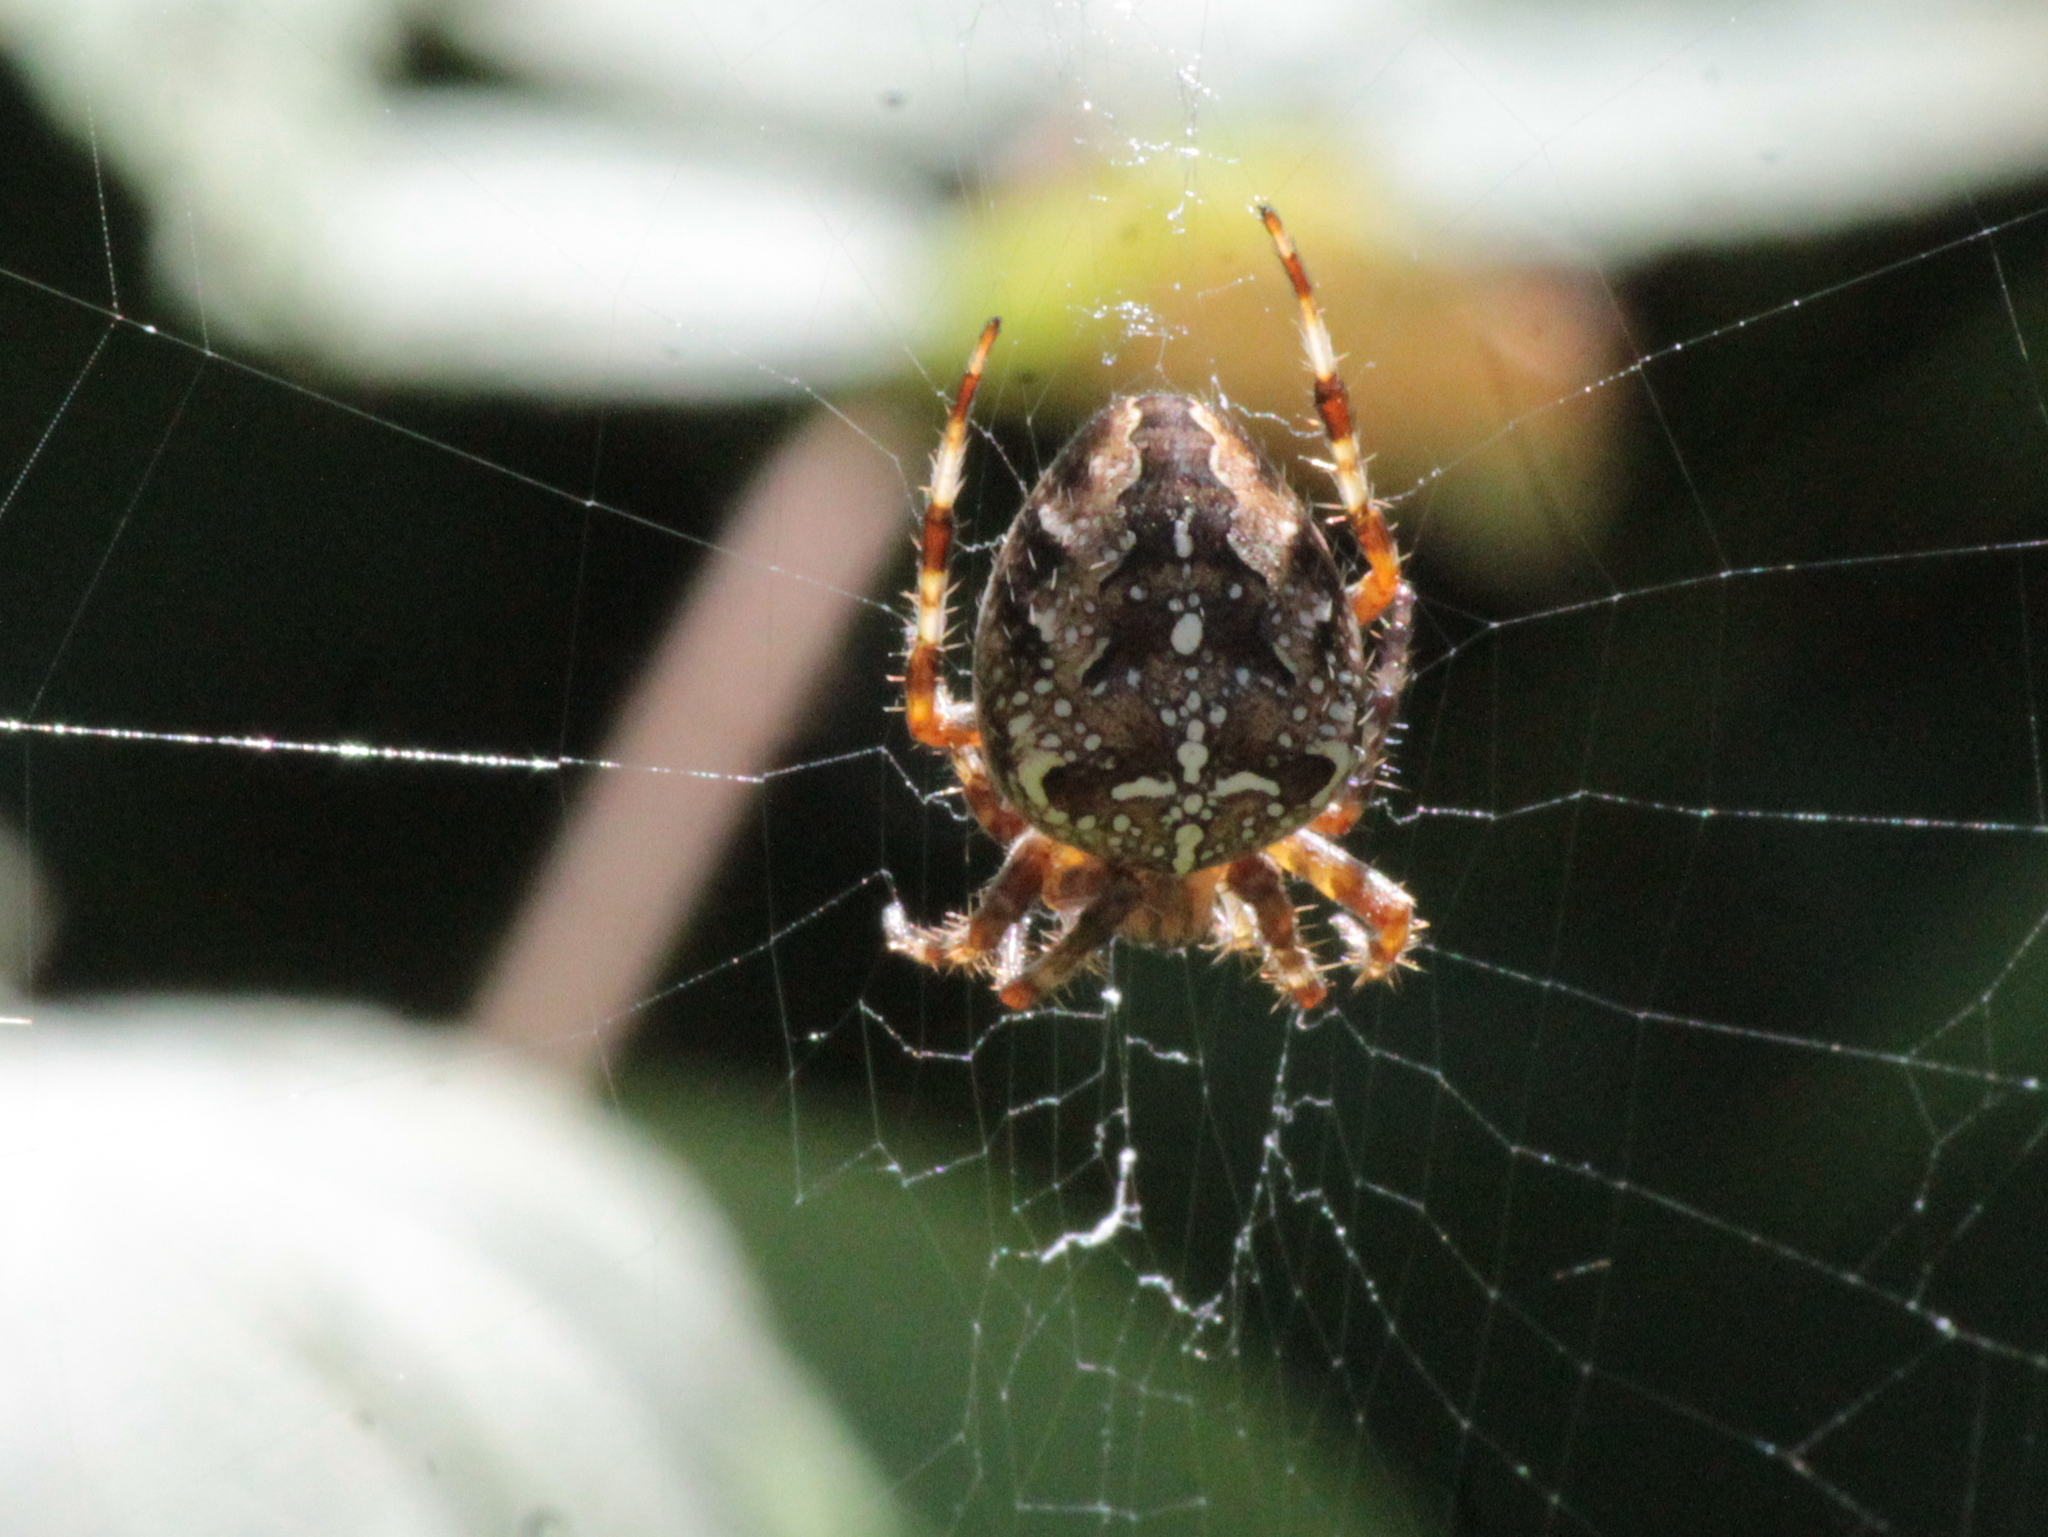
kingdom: Animalia
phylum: Arthropoda
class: Arachnida
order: Araneae
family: Araneidae
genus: Araneus
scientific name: Araneus diadematus
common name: Cross orbweaver
